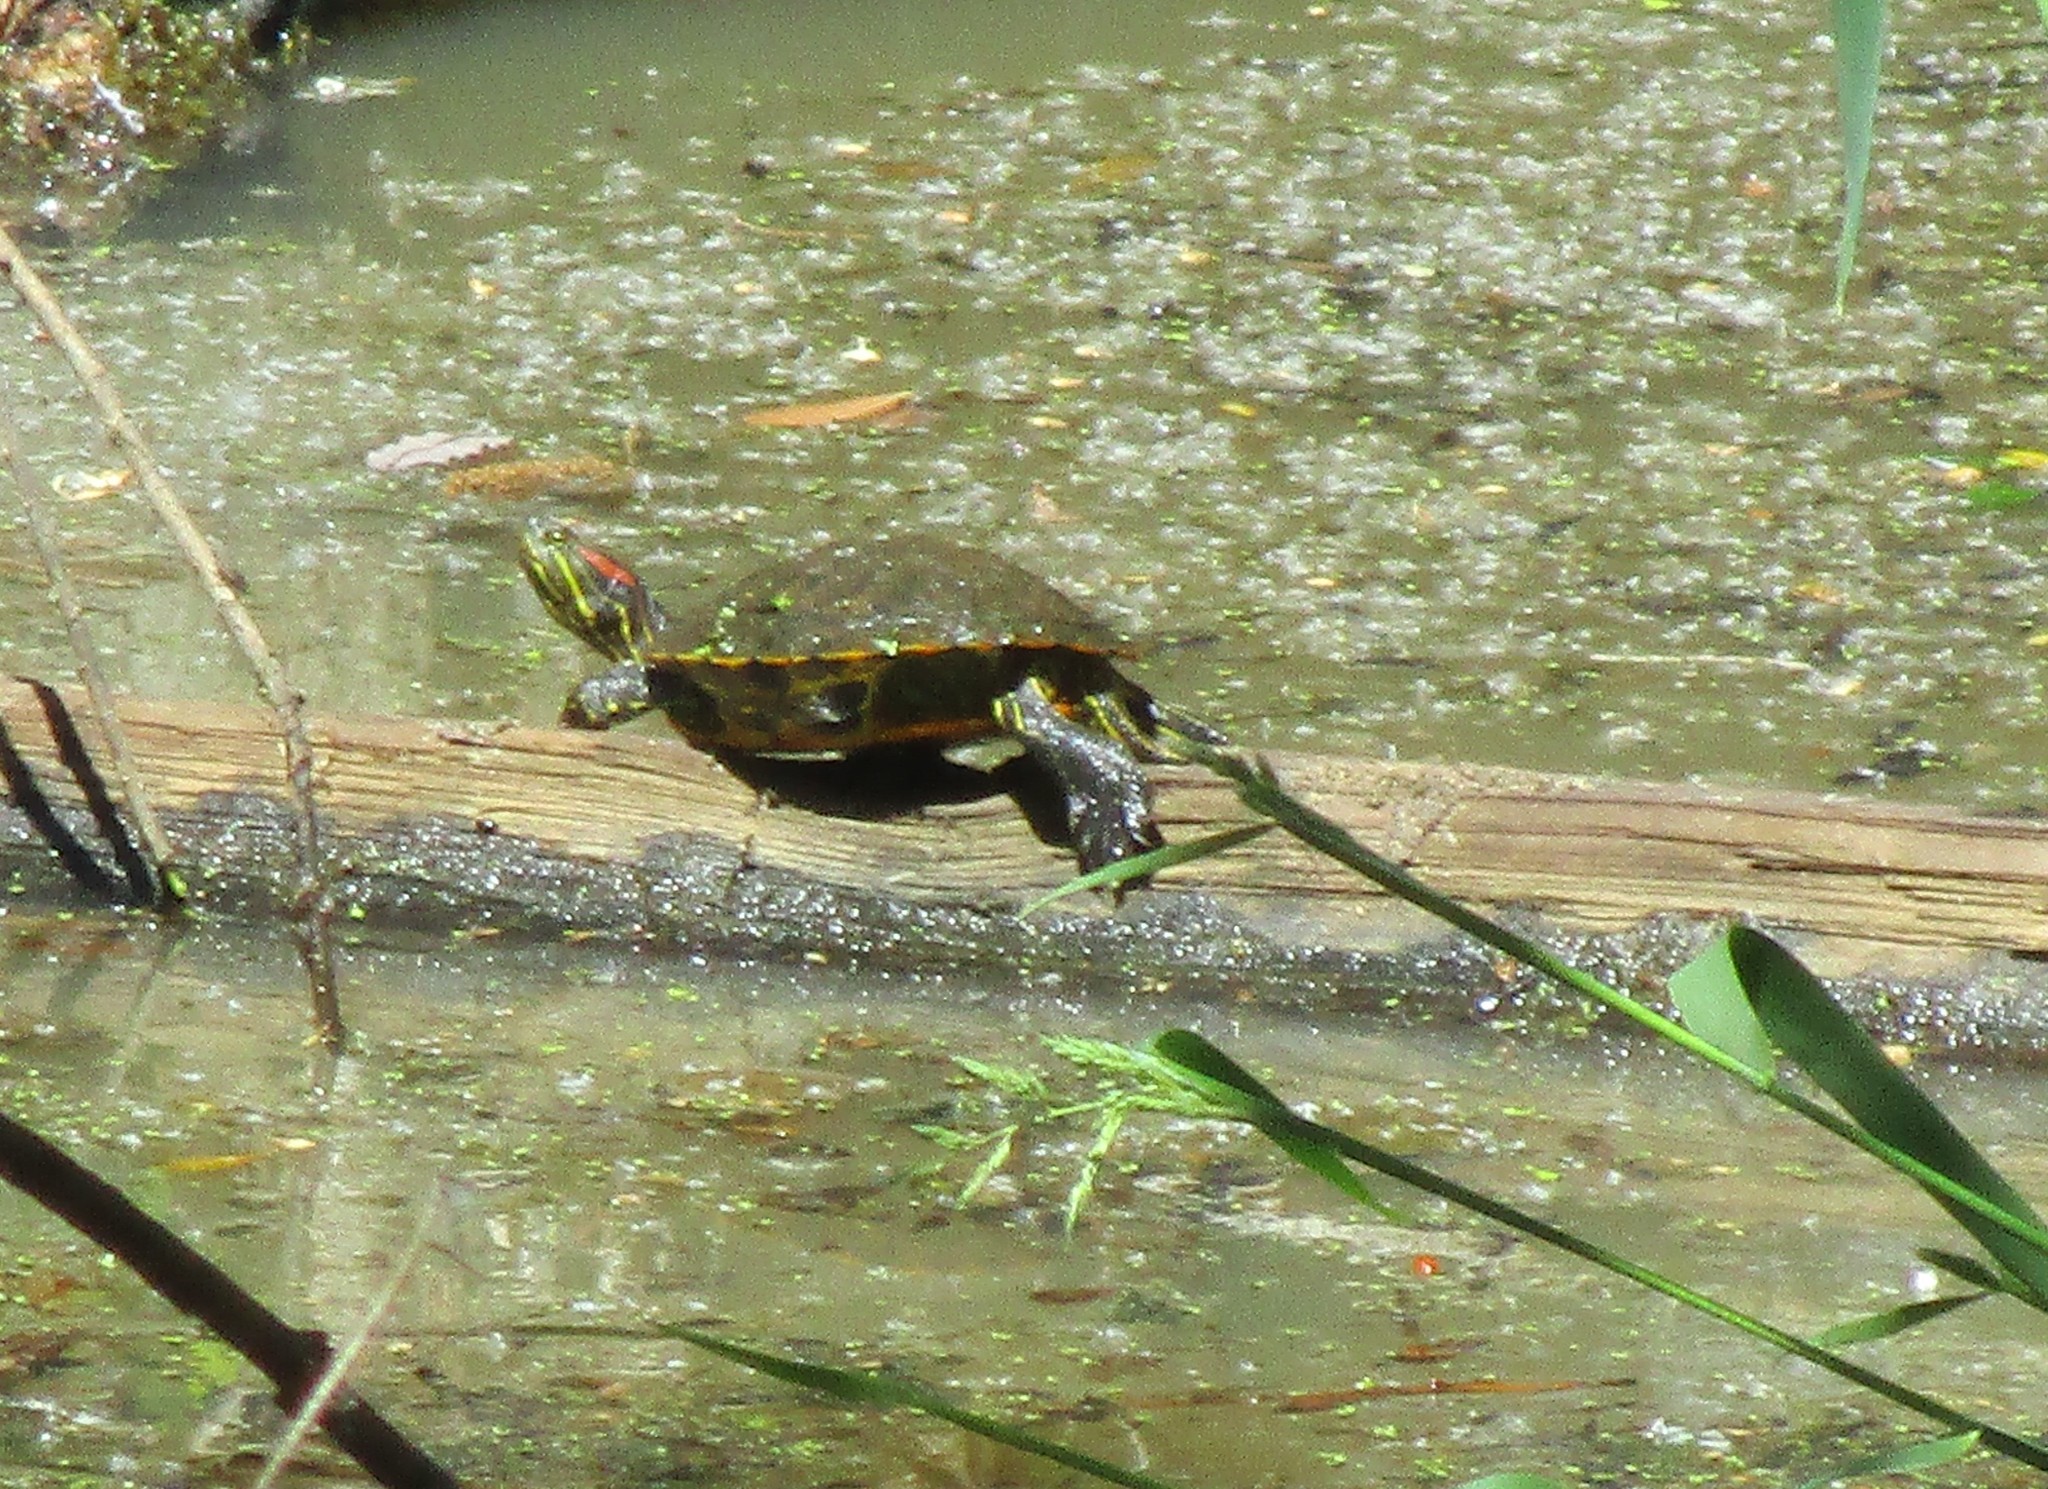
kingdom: Animalia
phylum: Chordata
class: Testudines
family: Emydidae
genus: Trachemys
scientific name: Trachemys scripta
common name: Slider
